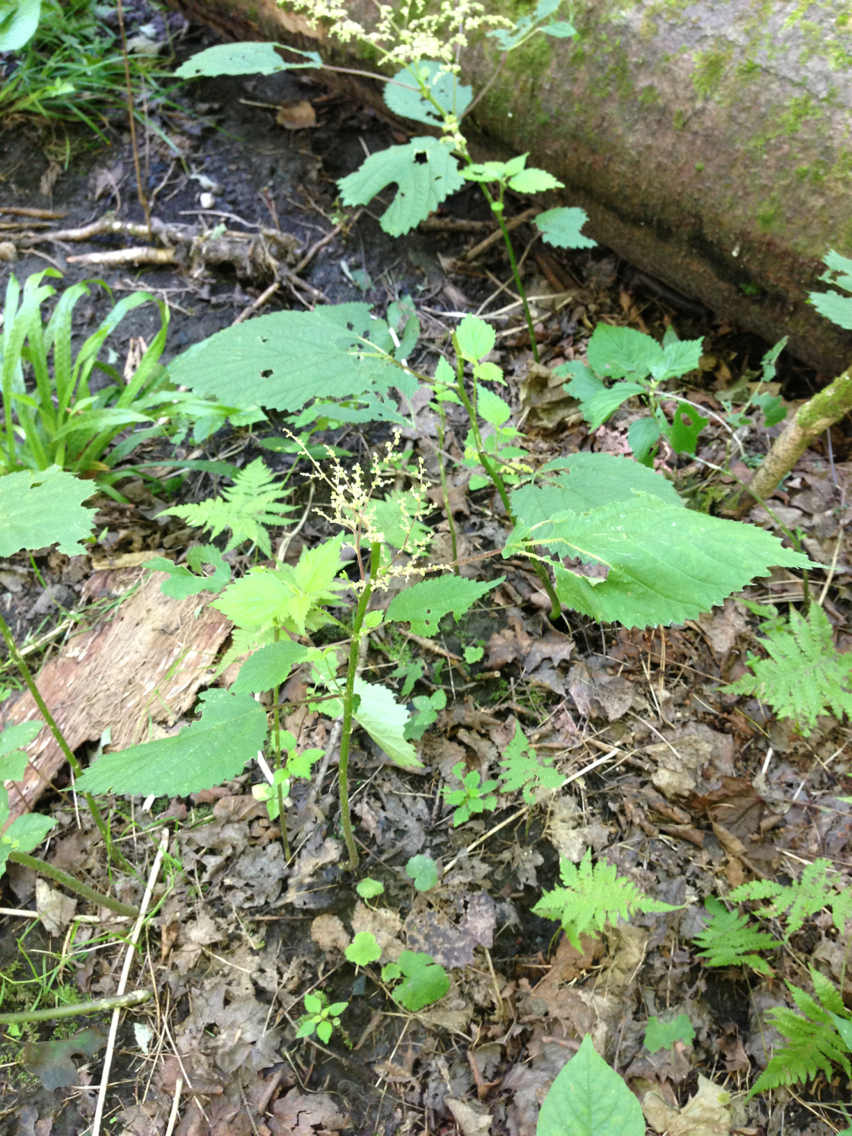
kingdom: Plantae
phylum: Tracheophyta
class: Magnoliopsida
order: Rosales
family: Urticaceae
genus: Laportea
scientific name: Laportea canadensis
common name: Canada nettle
